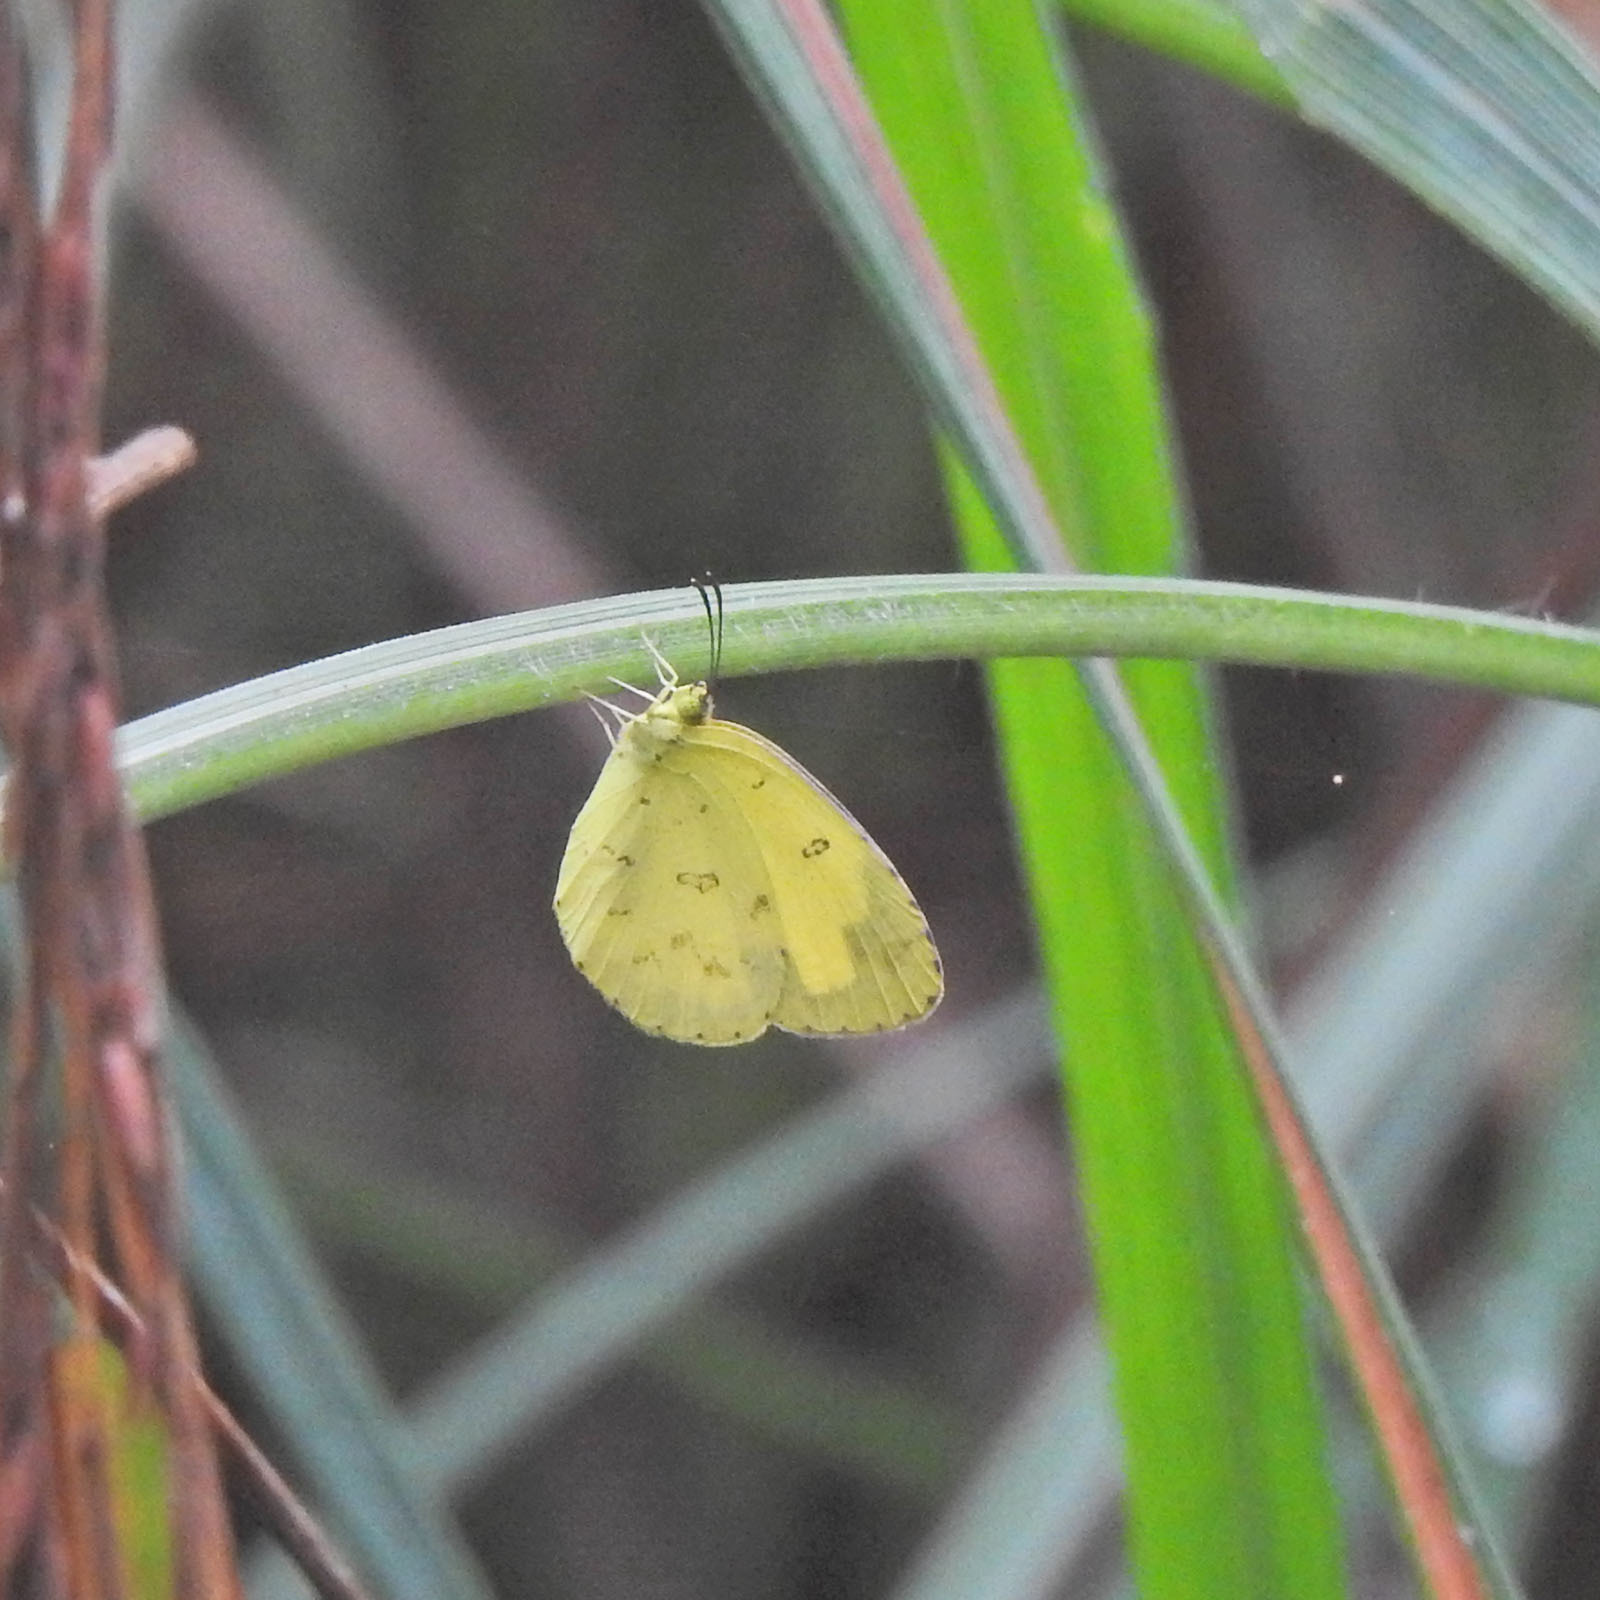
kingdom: Animalia
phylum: Arthropoda
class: Insecta
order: Lepidoptera
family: Pieridae
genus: Eurema
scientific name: Eurema hecabe
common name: Pale grass yellow
